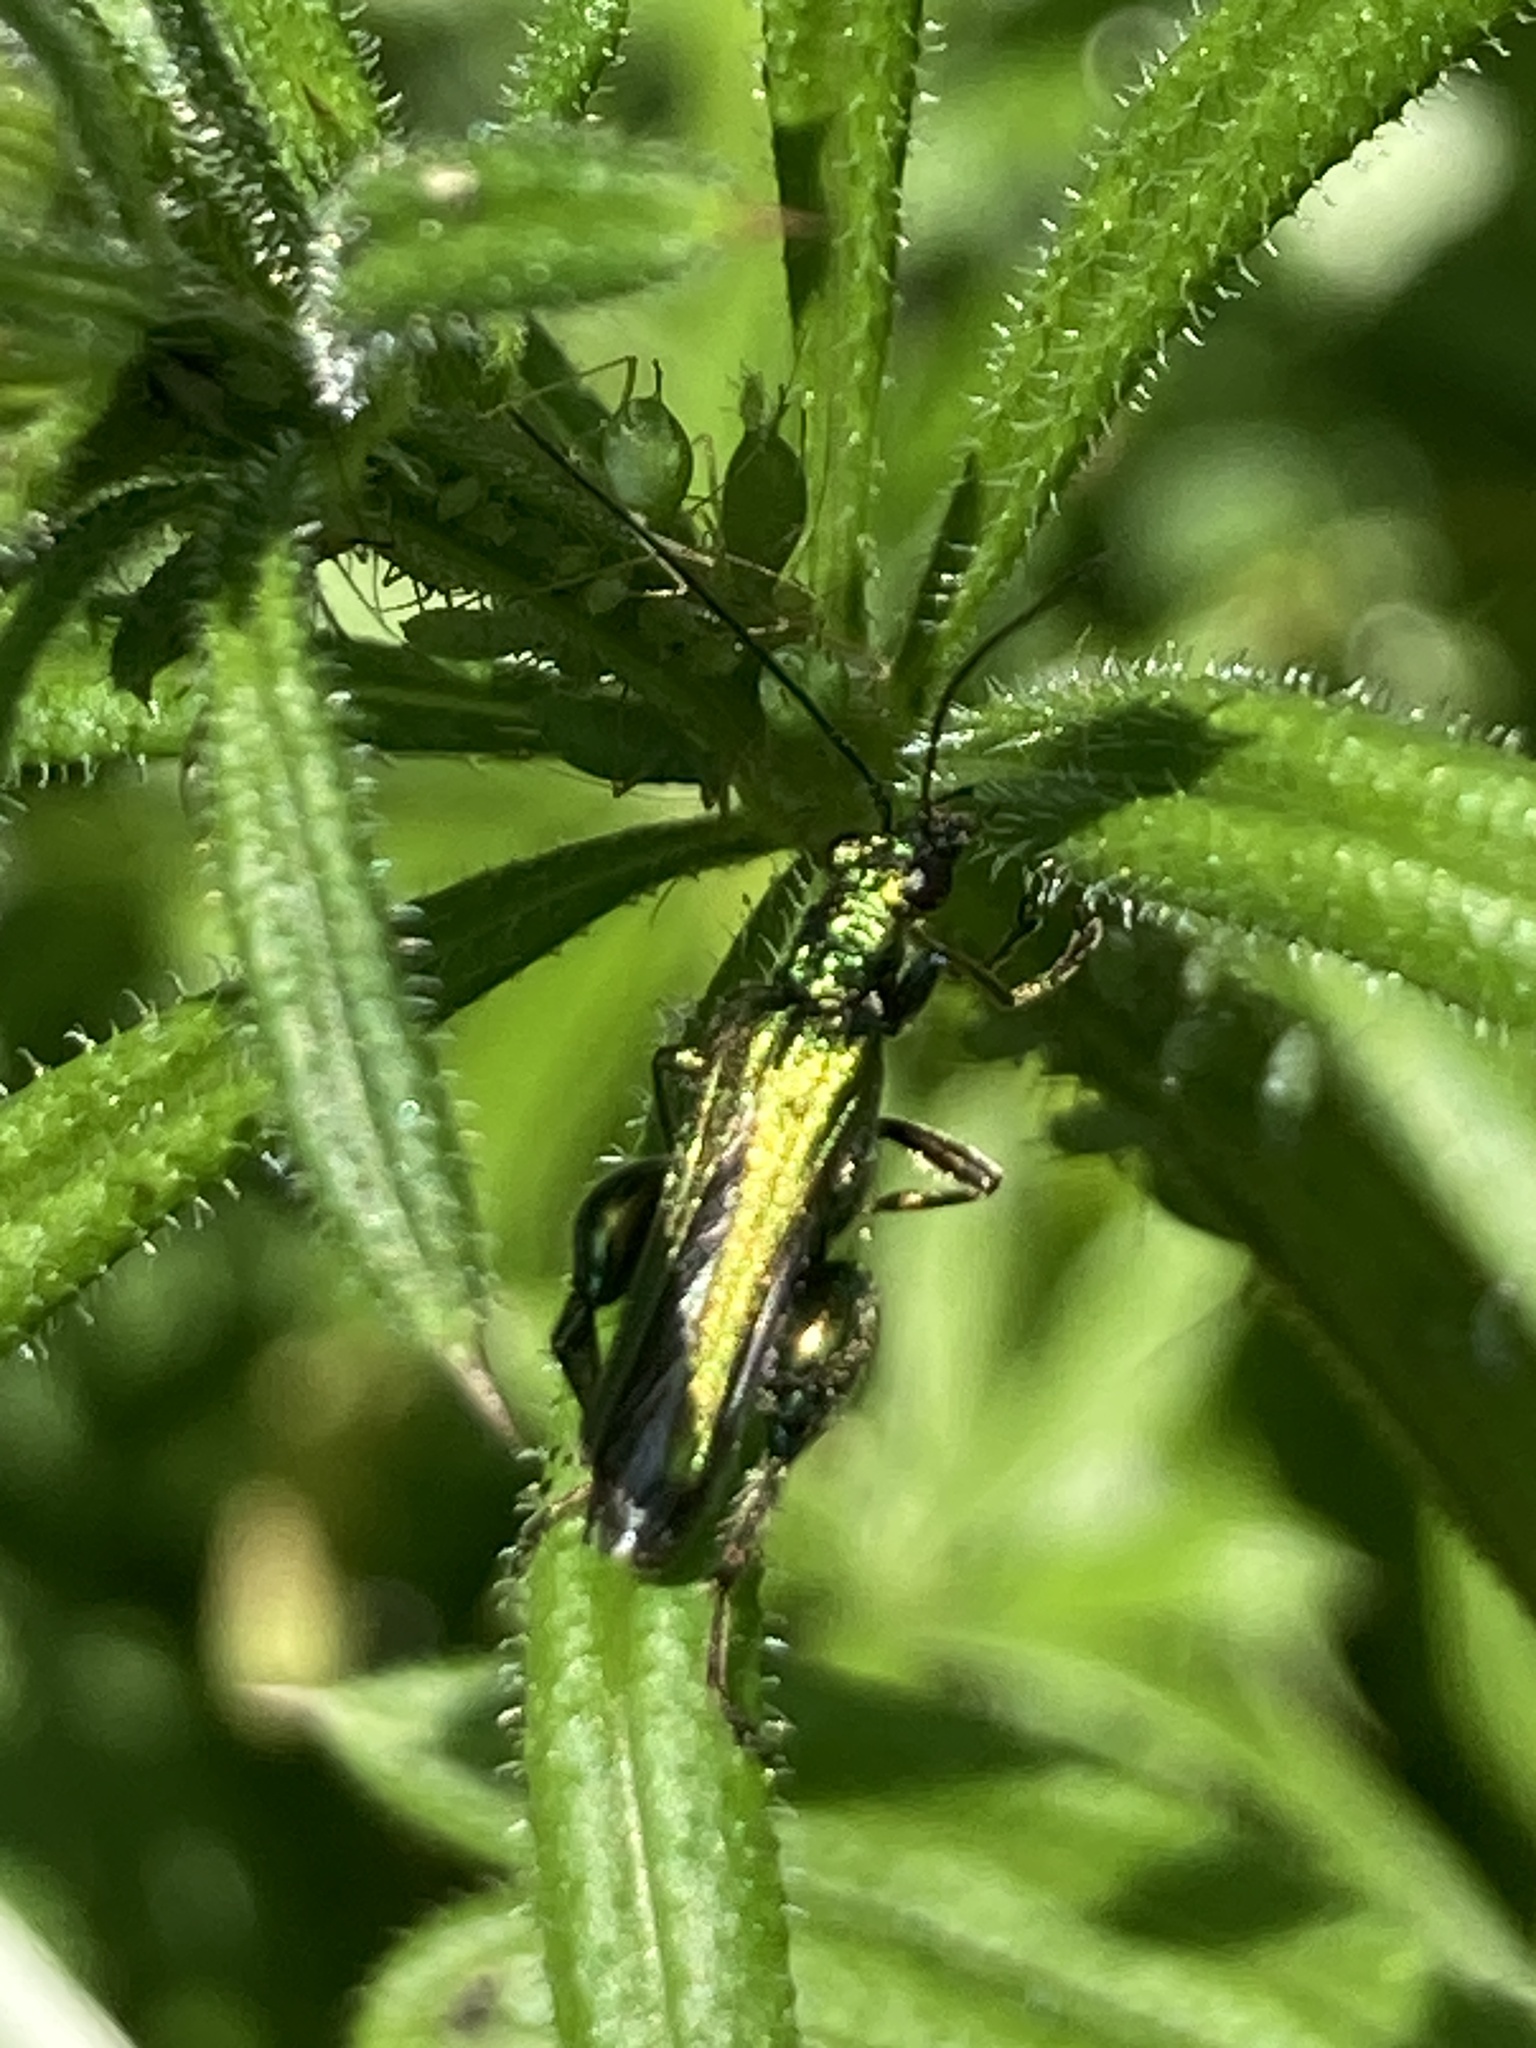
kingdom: Animalia
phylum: Arthropoda
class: Insecta
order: Coleoptera
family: Oedemeridae
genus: Oedemera
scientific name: Oedemera nobilis
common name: Swollen-thighed beetle
